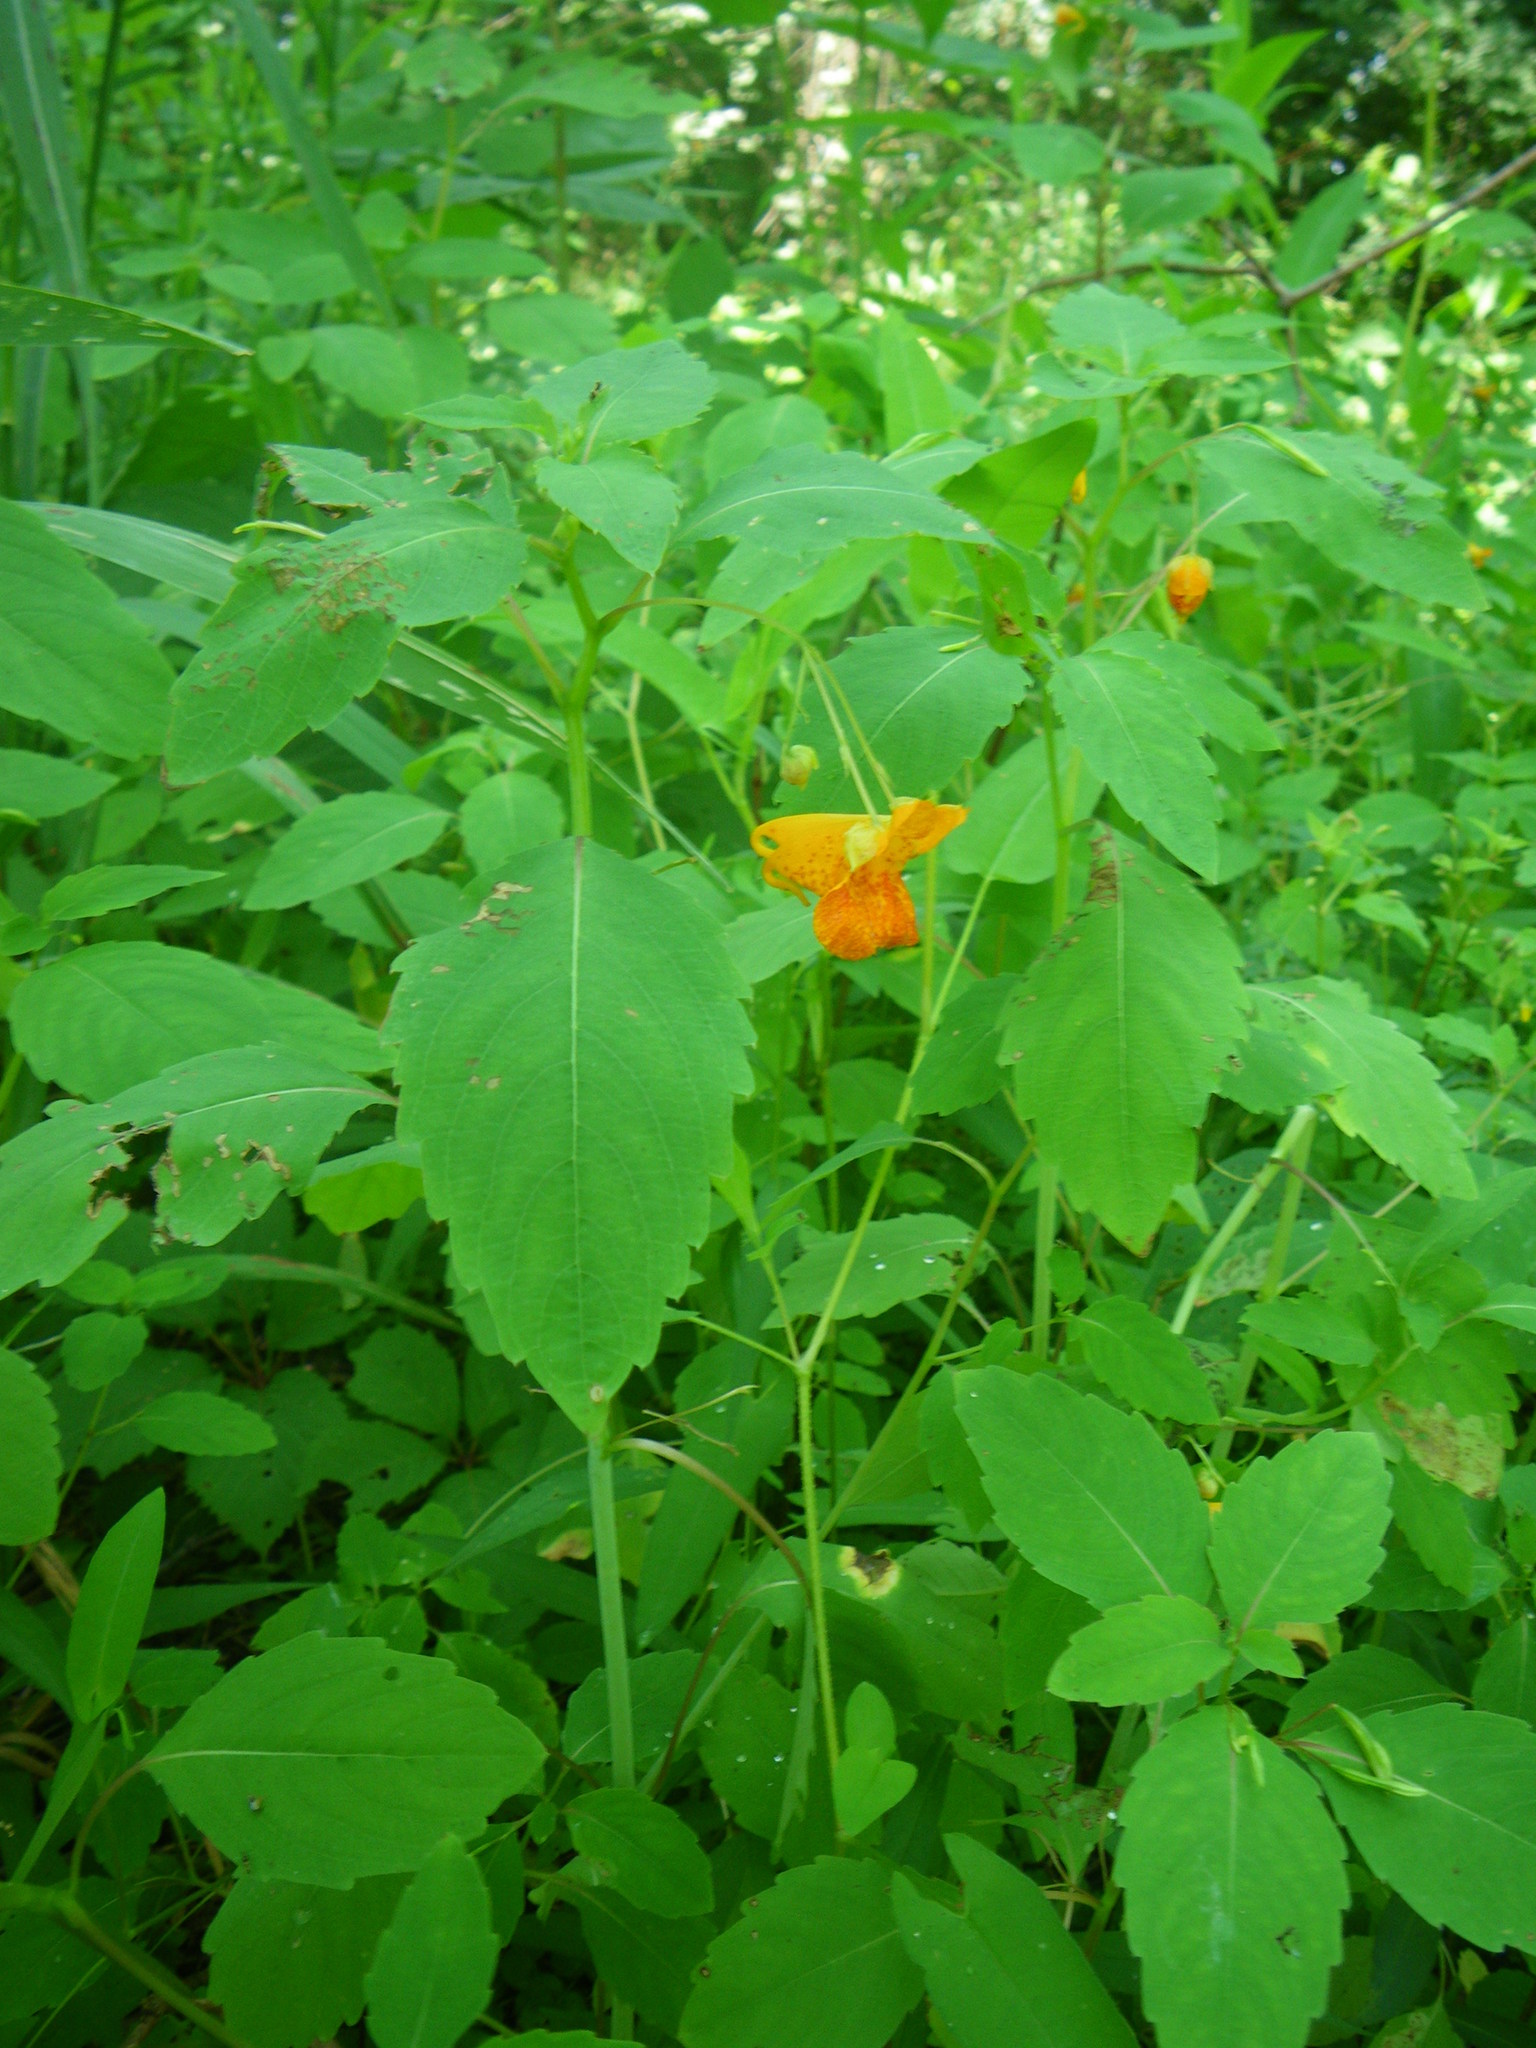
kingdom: Plantae
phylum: Tracheophyta
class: Magnoliopsida
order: Ericales
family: Balsaminaceae
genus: Impatiens
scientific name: Impatiens capensis
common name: Orange balsam
